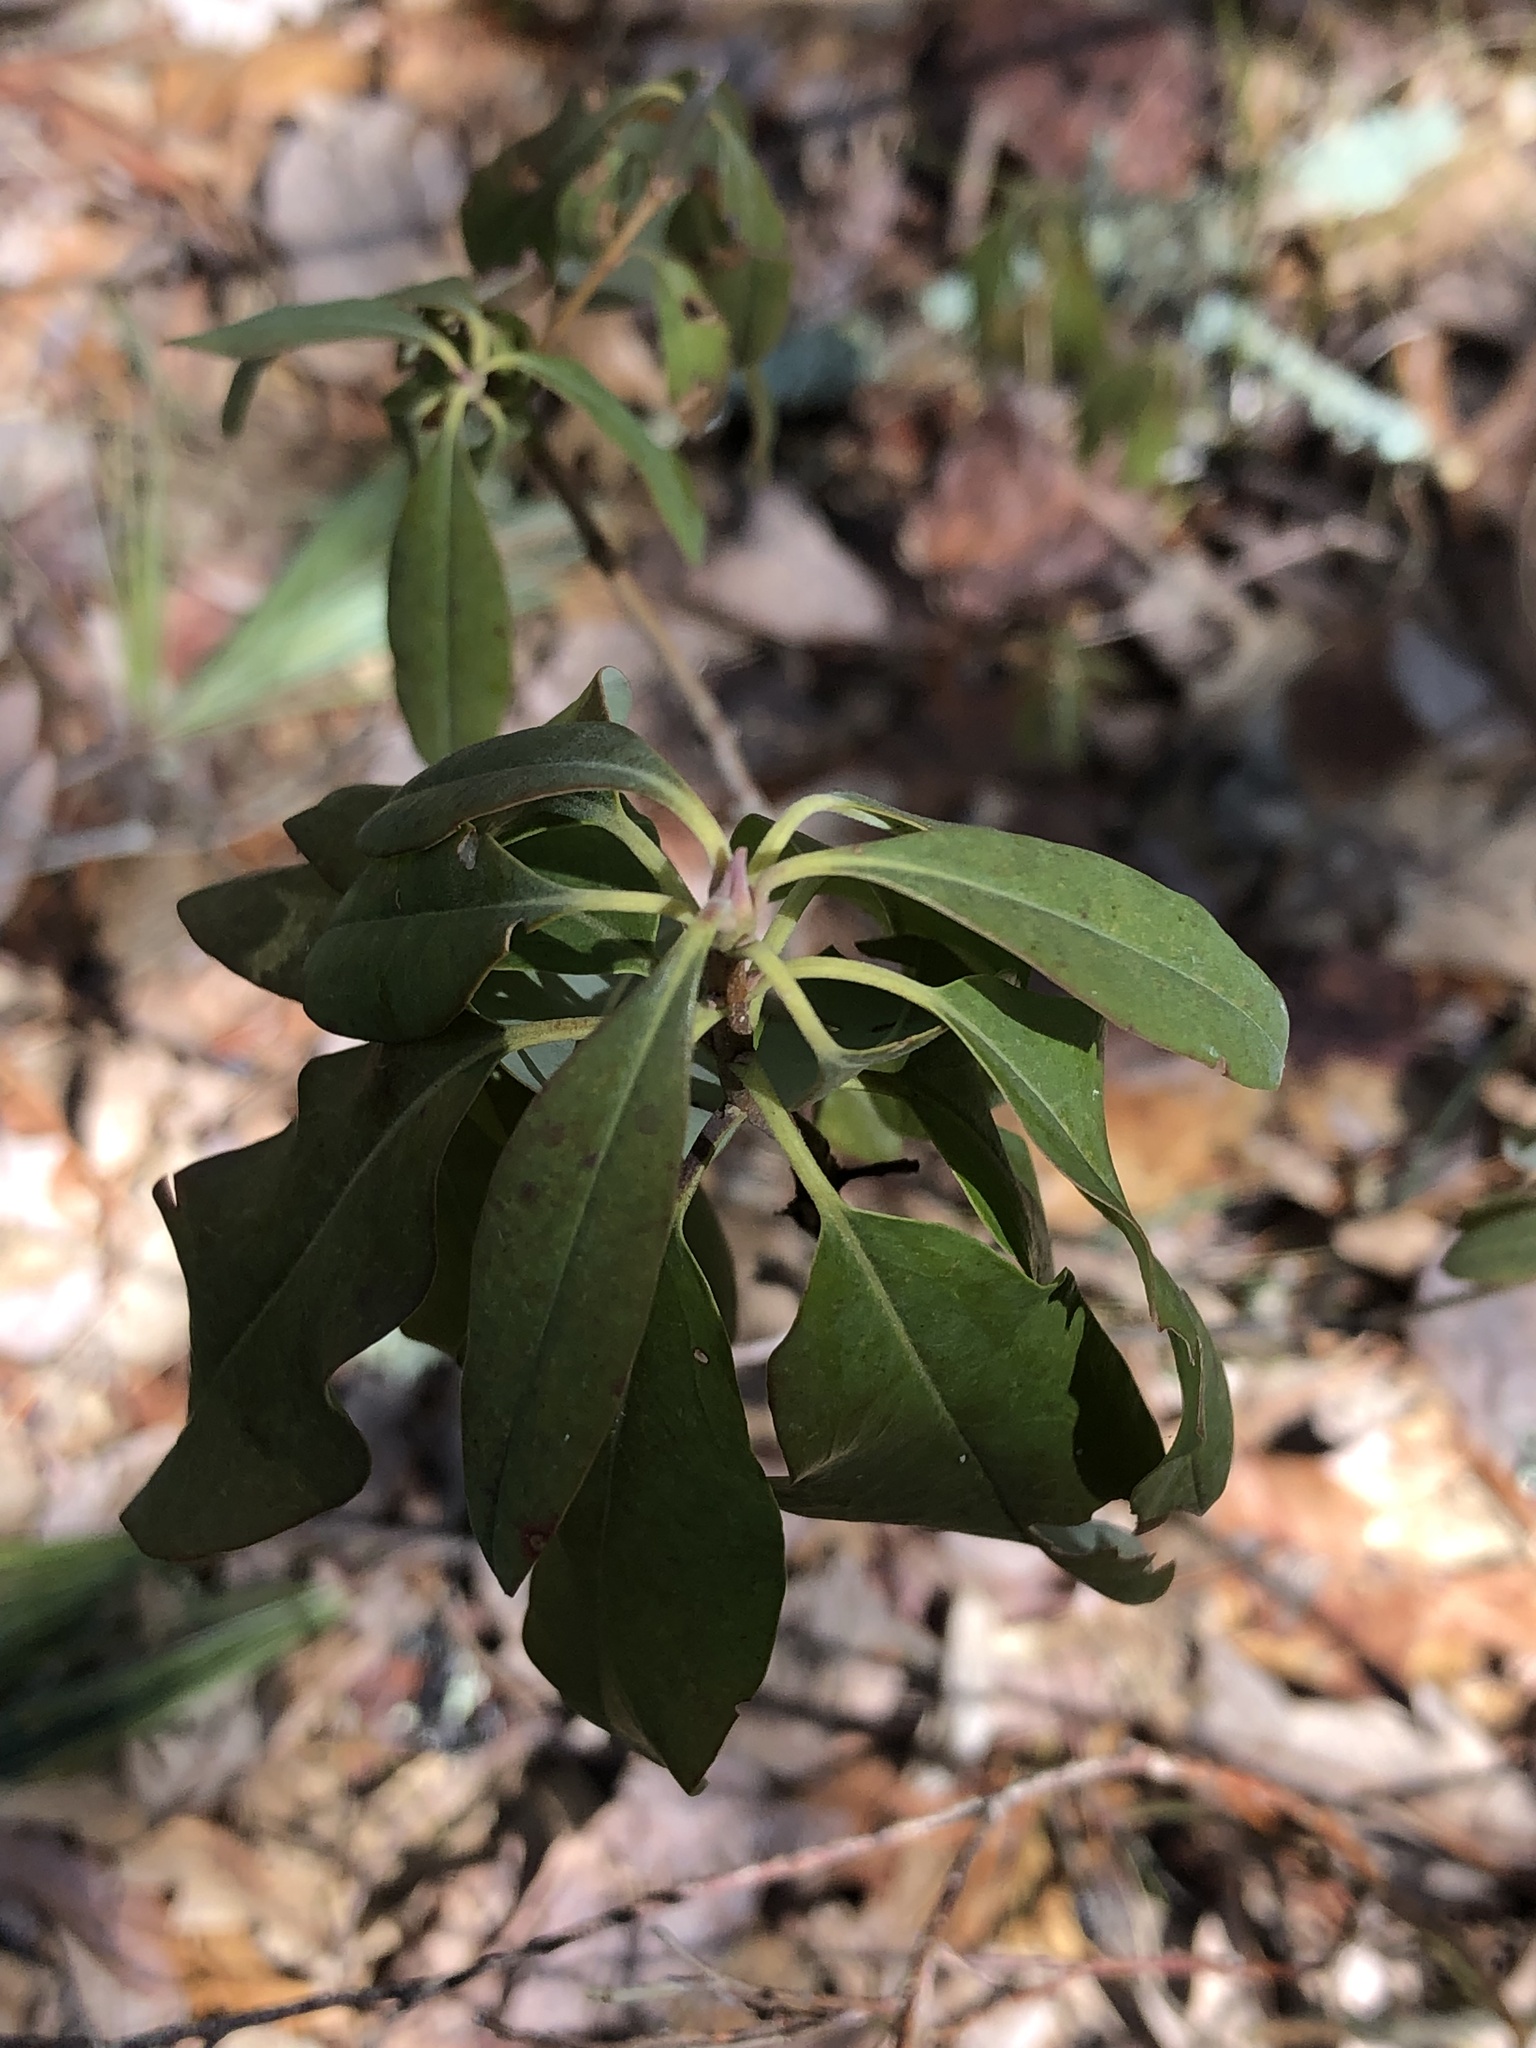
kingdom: Plantae
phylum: Tracheophyta
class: Magnoliopsida
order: Ericales
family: Ericaceae
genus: Kalmia
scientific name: Kalmia angustifolia
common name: Sheep-laurel
